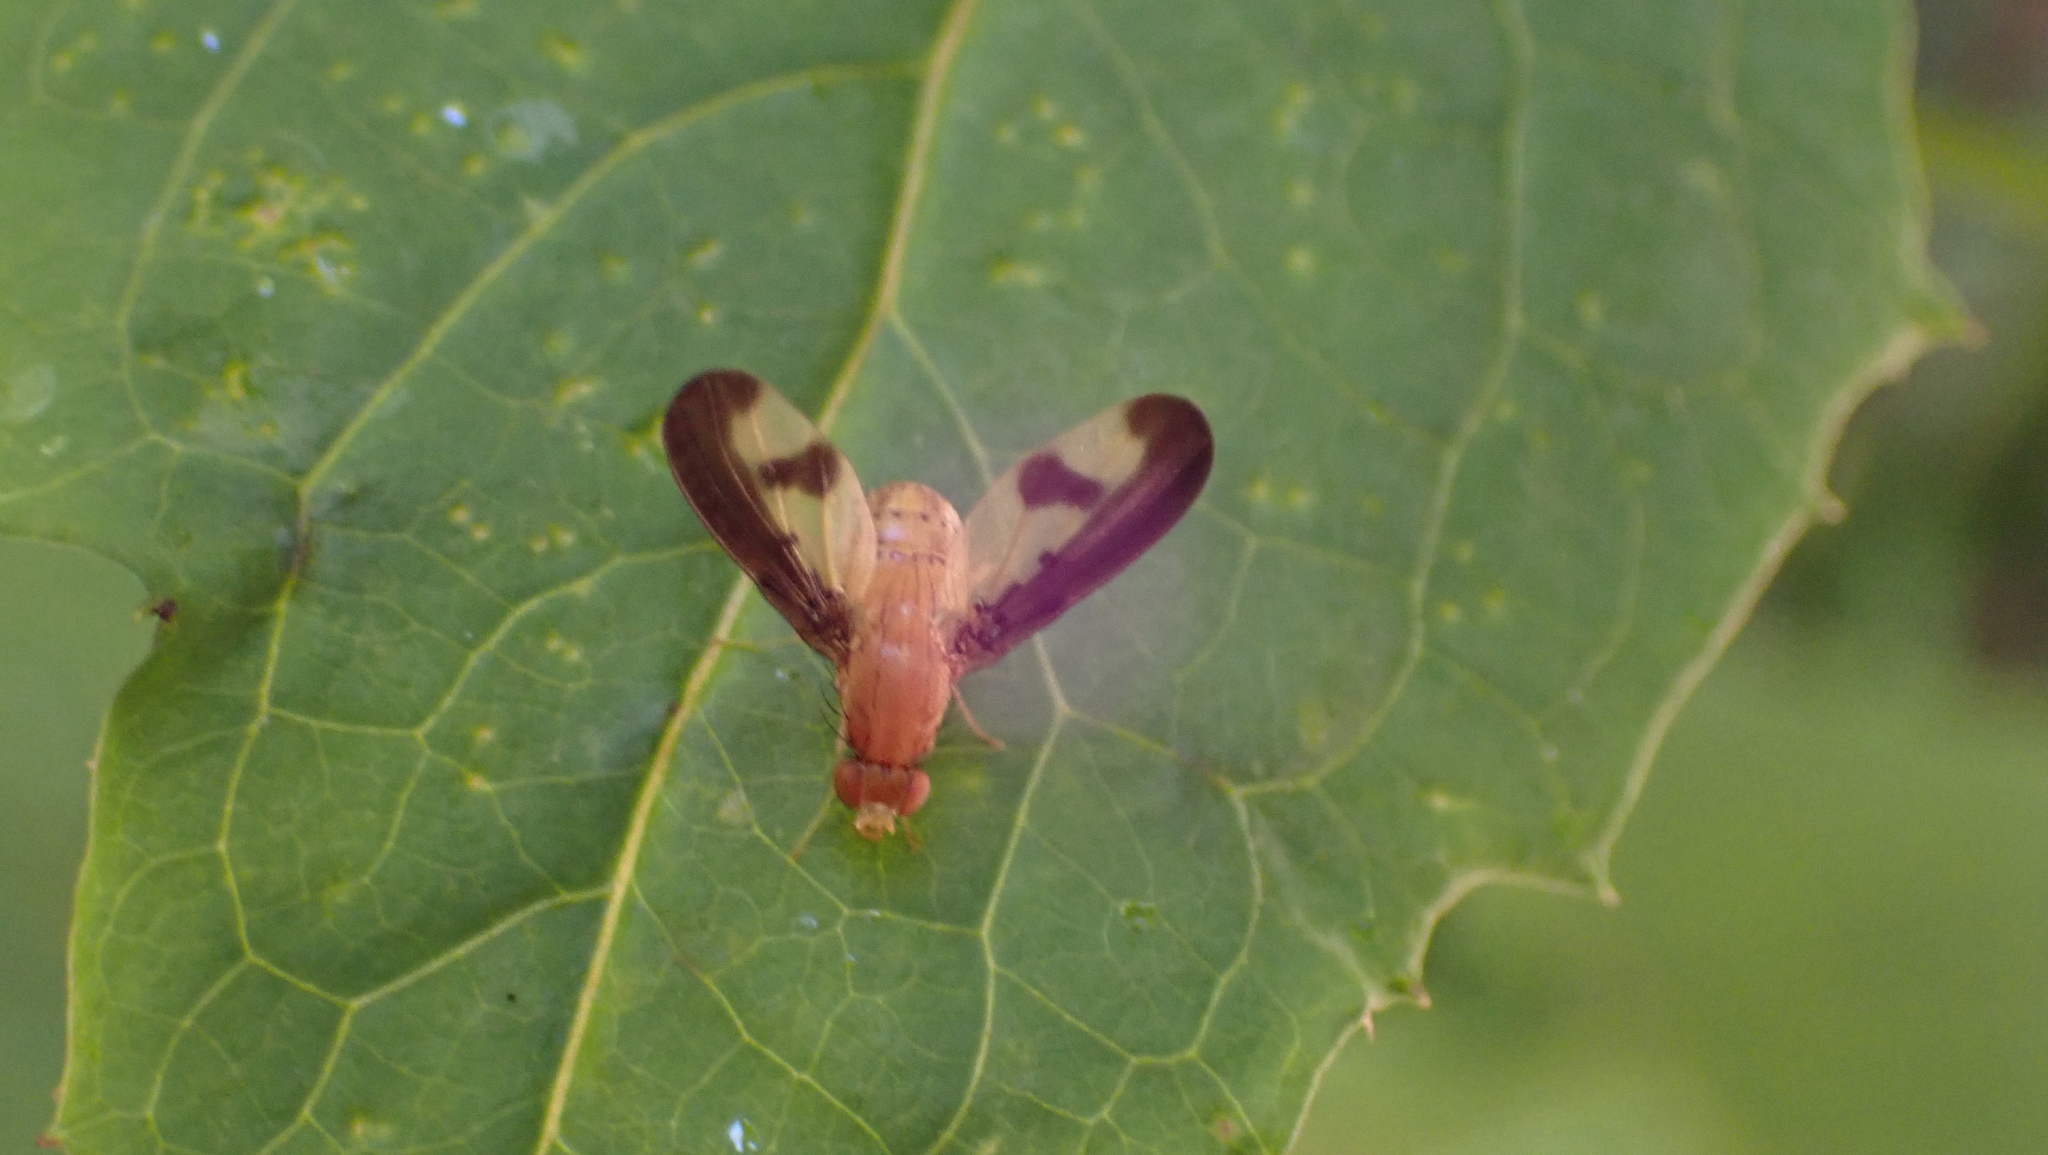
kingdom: Animalia
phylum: Arthropoda
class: Insecta
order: Diptera
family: Pallopteridae
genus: Toxonevra
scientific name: Toxonevra superba
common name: Antlered flutter fly
